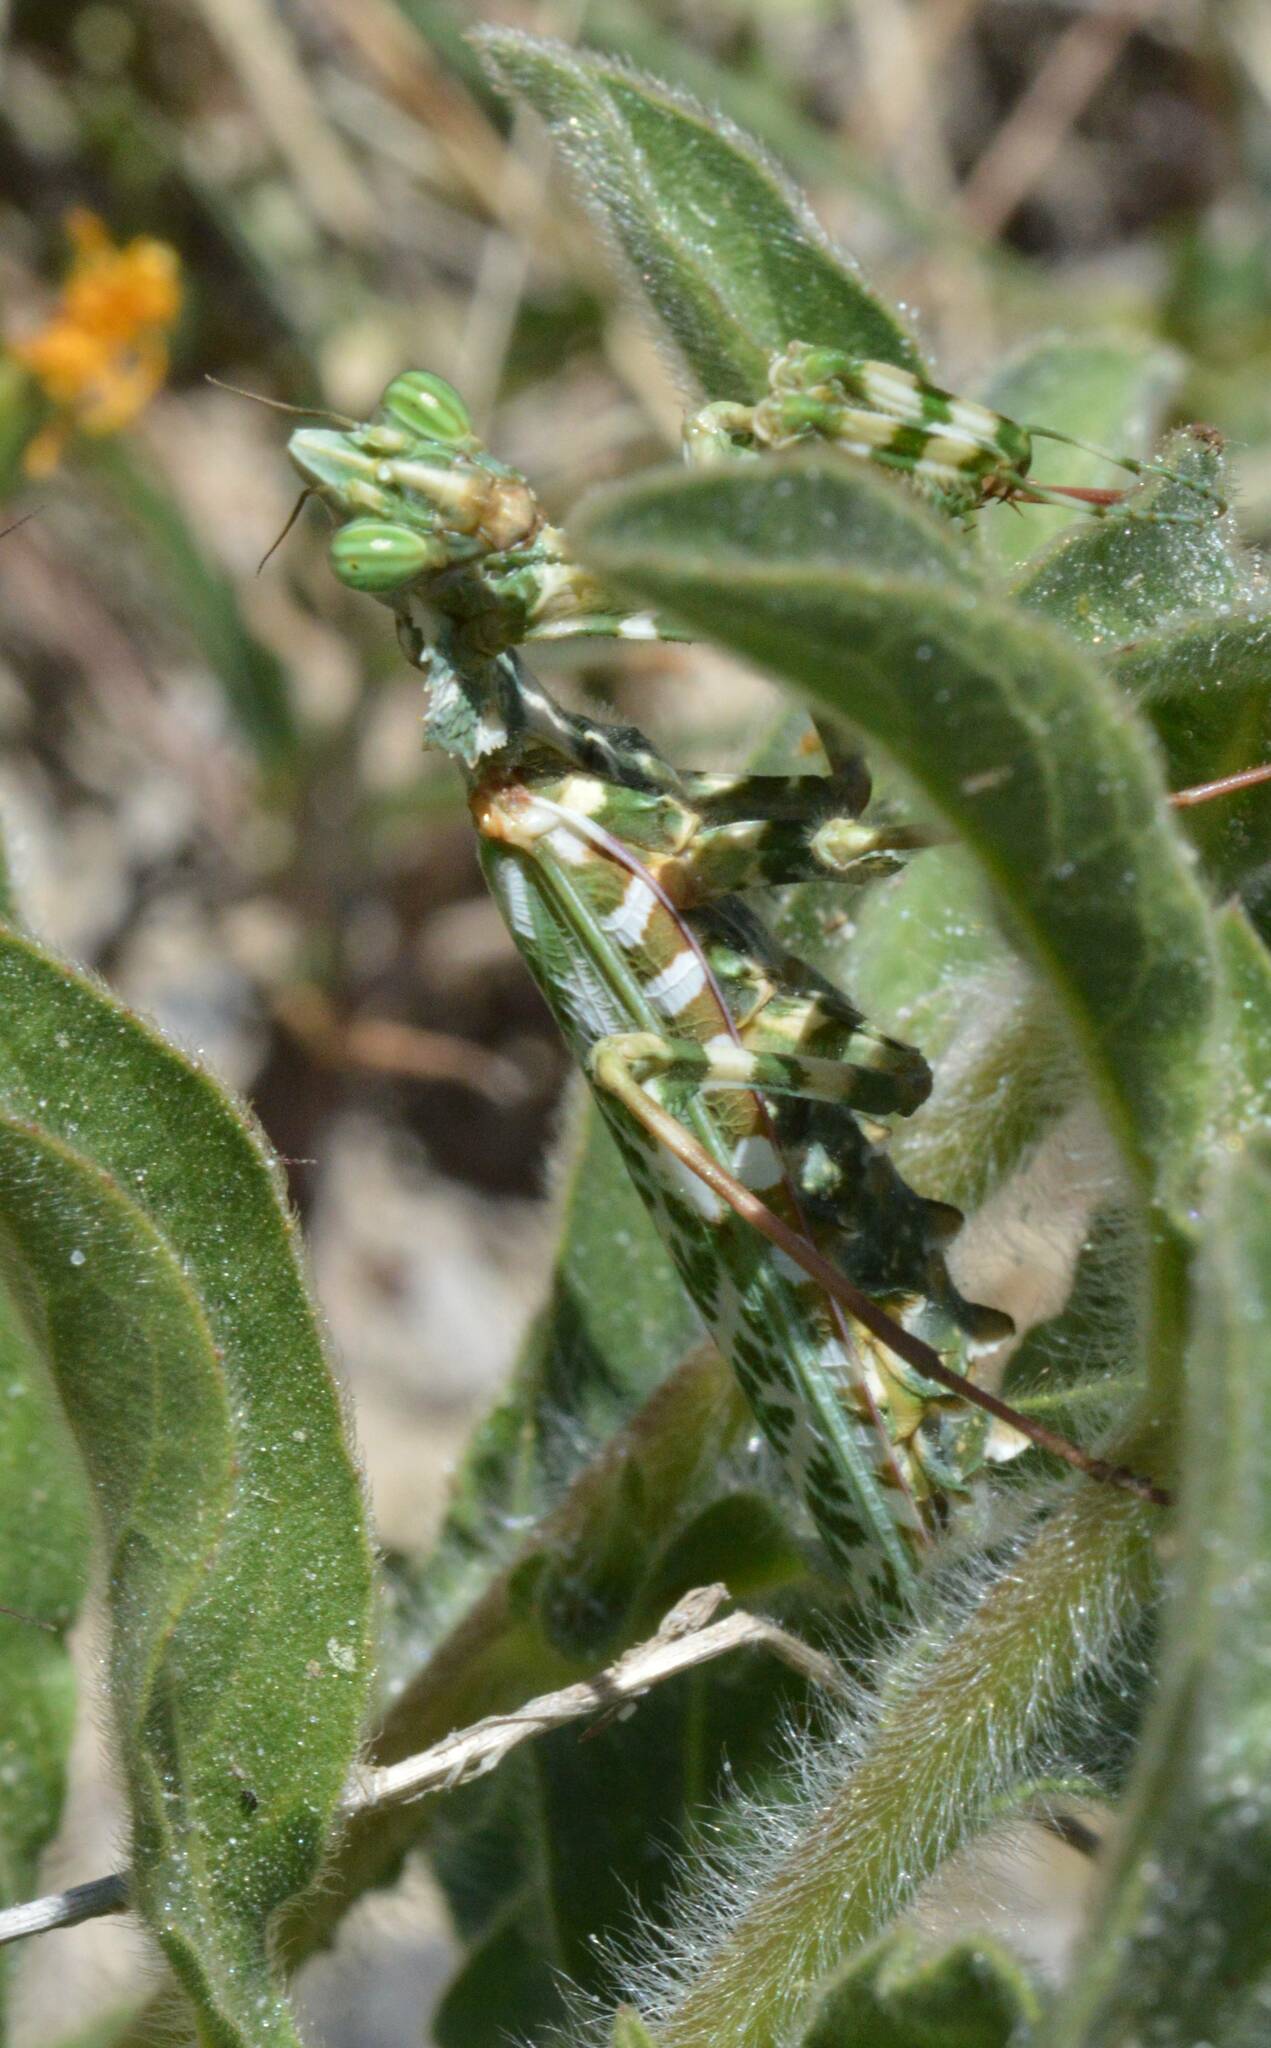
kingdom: Animalia
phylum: Arthropoda
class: Insecta
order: Mantodea
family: Empusidae
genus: Blepharopsis
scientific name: Blepharopsis mendica
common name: Devil's flower mantis
